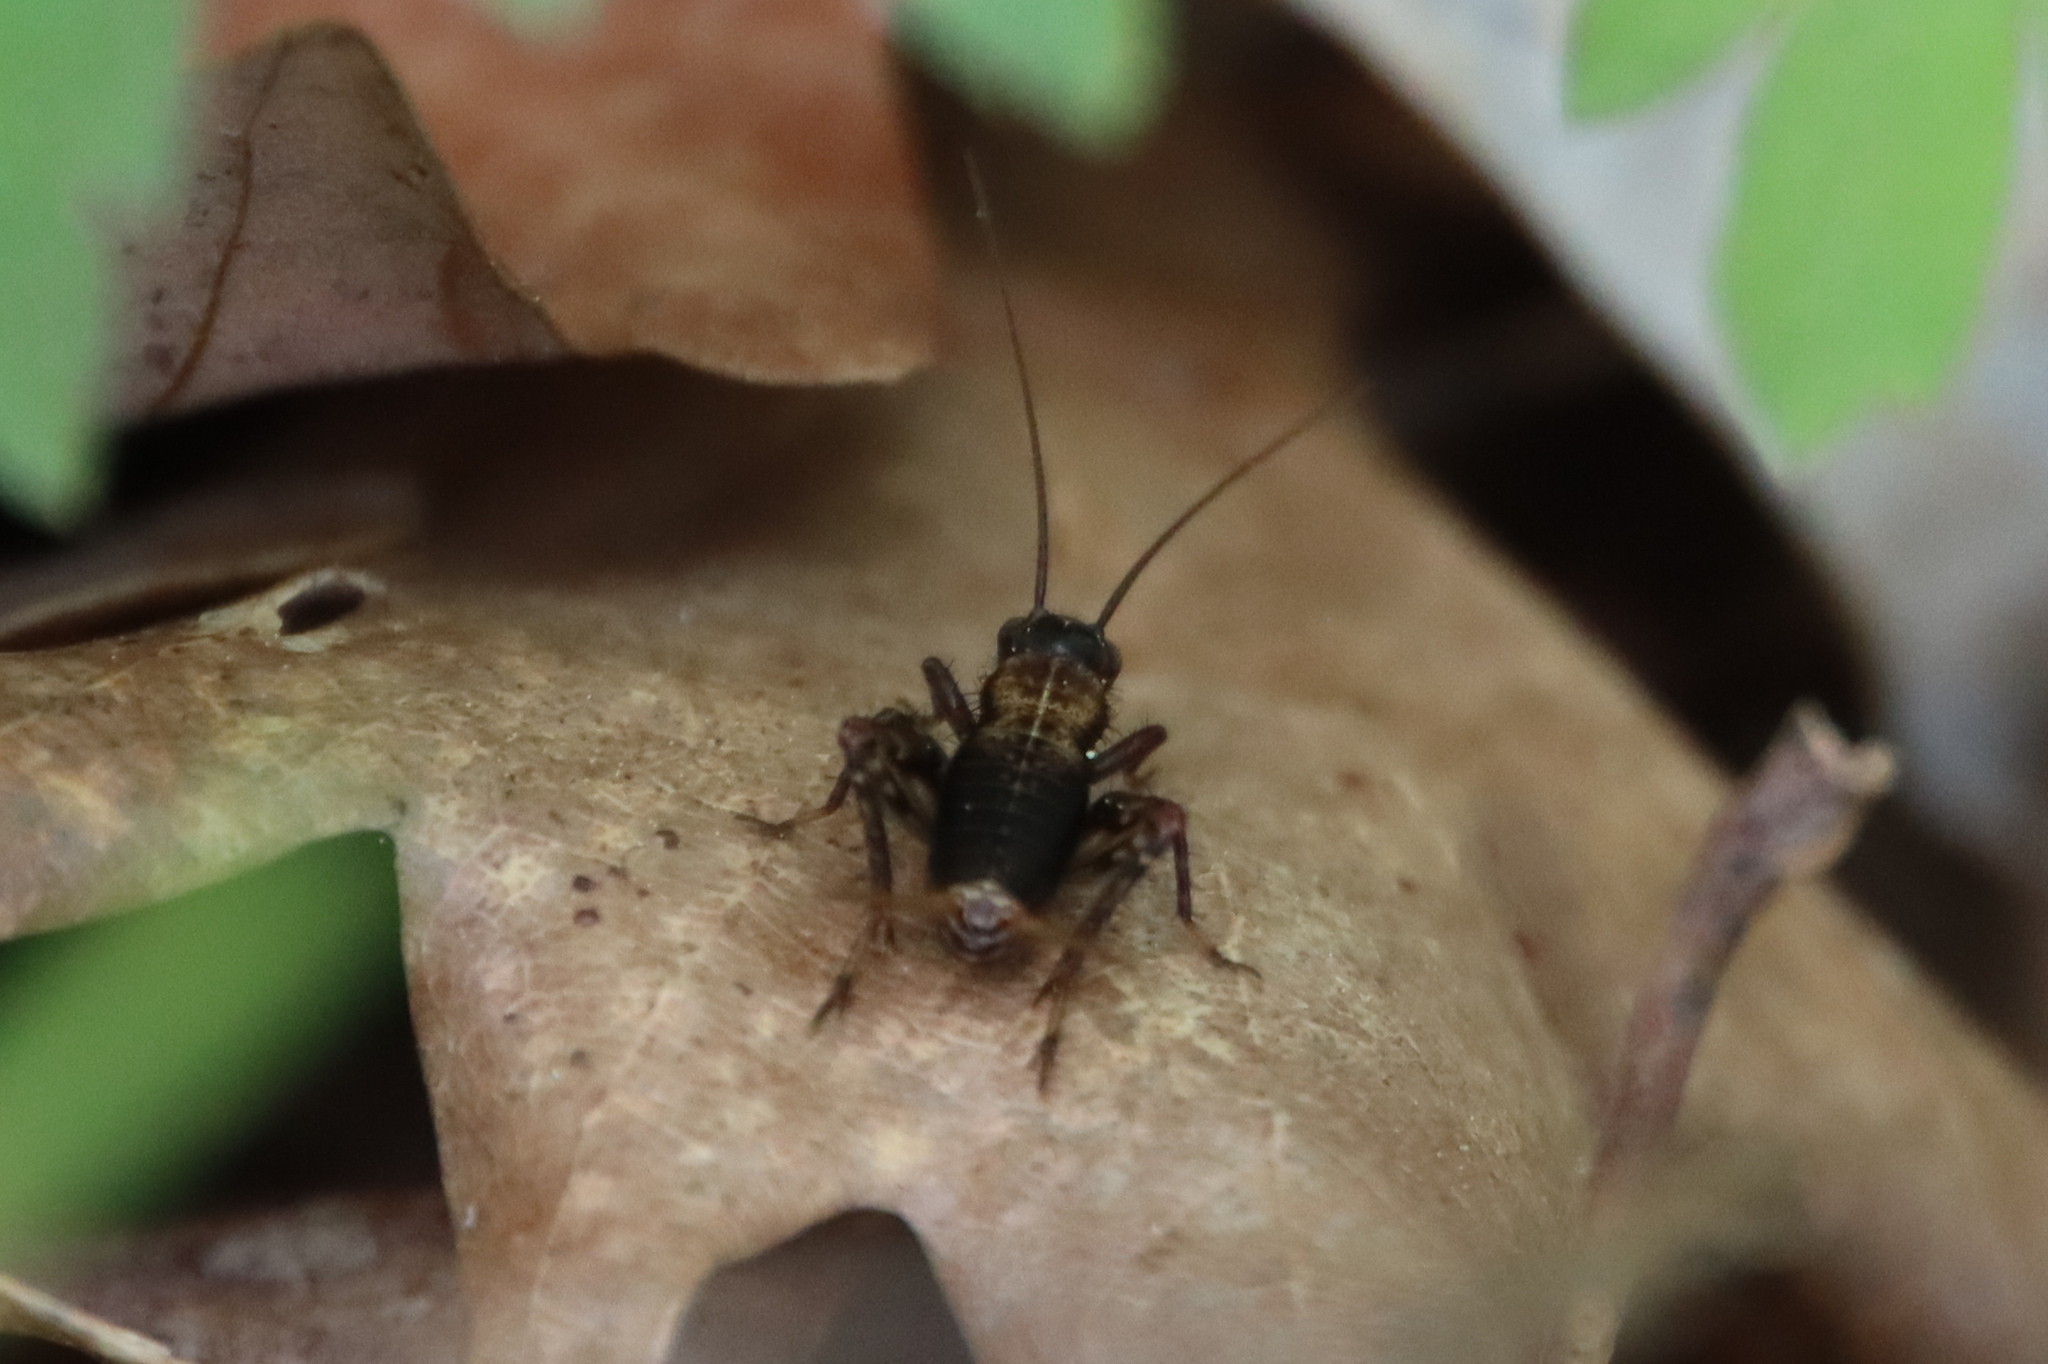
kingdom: Animalia
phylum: Arthropoda
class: Insecta
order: Orthoptera
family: Trigonidiidae
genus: Nemobius
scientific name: Nemobius sylvestris
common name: Wood-cricket
